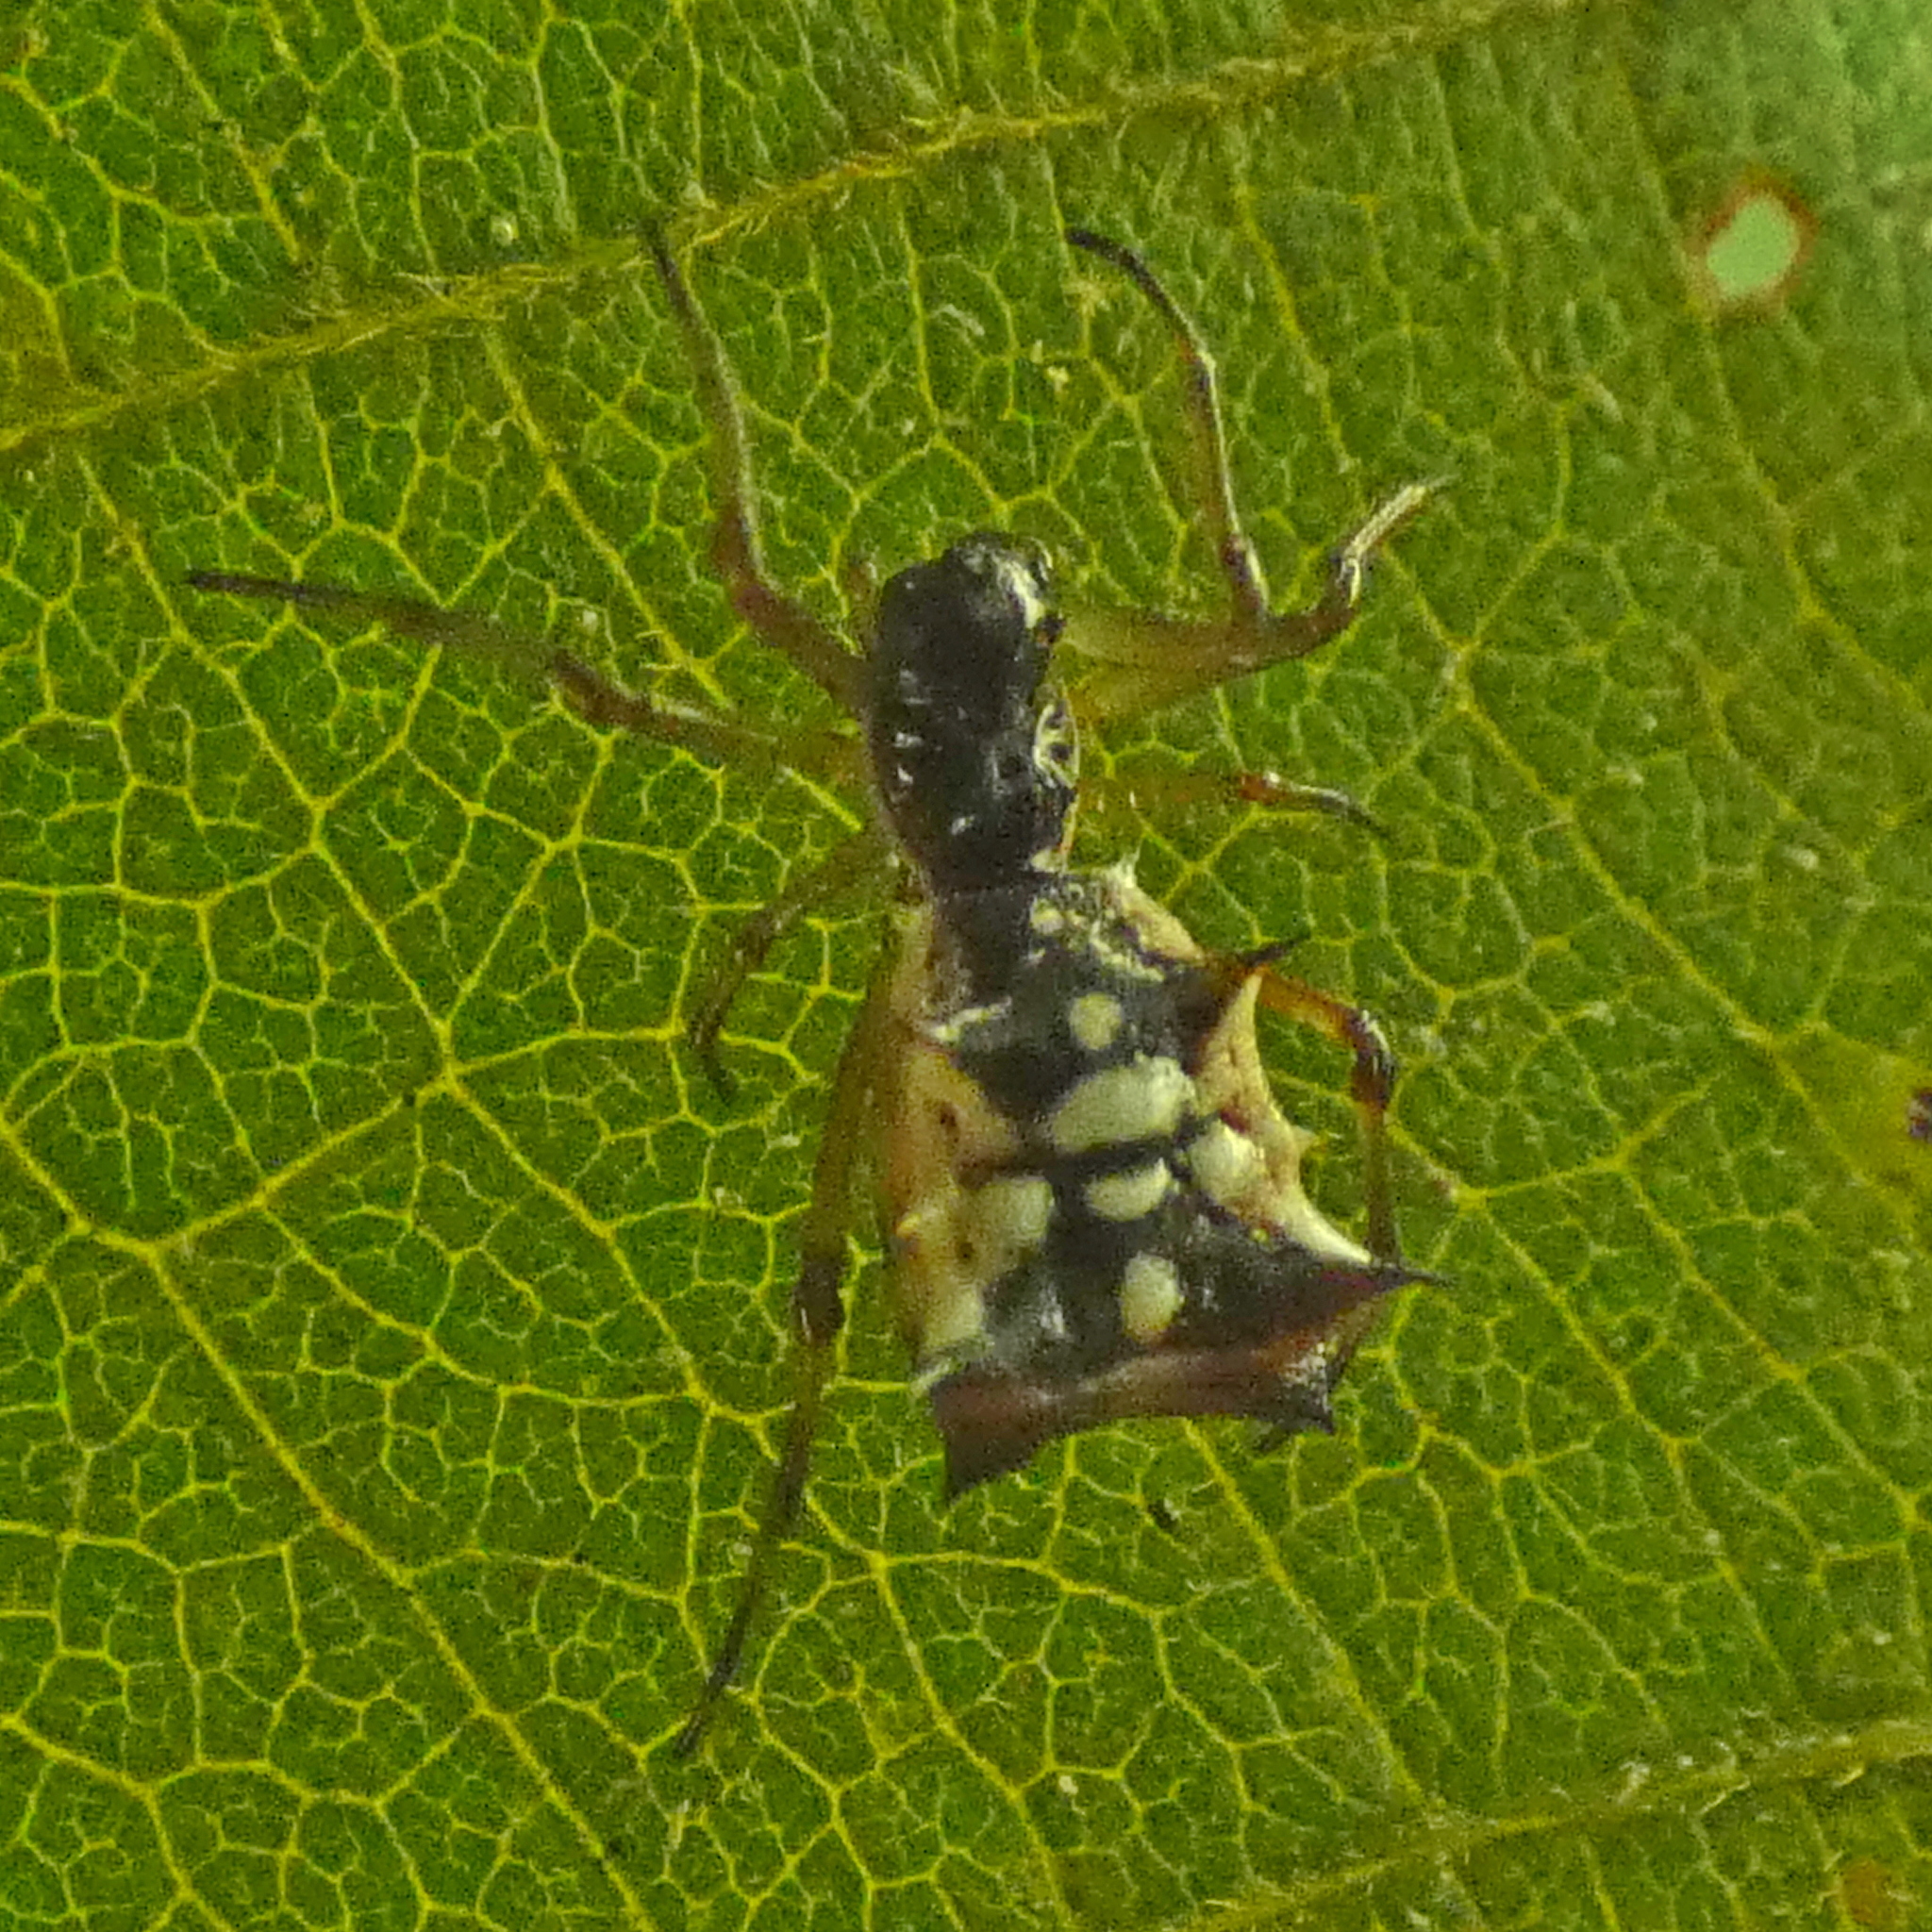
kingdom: Animalia
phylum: Arthropoda
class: Arachnida
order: Araneae
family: Araneidae
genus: Micrathena
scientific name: Micrathena picta
